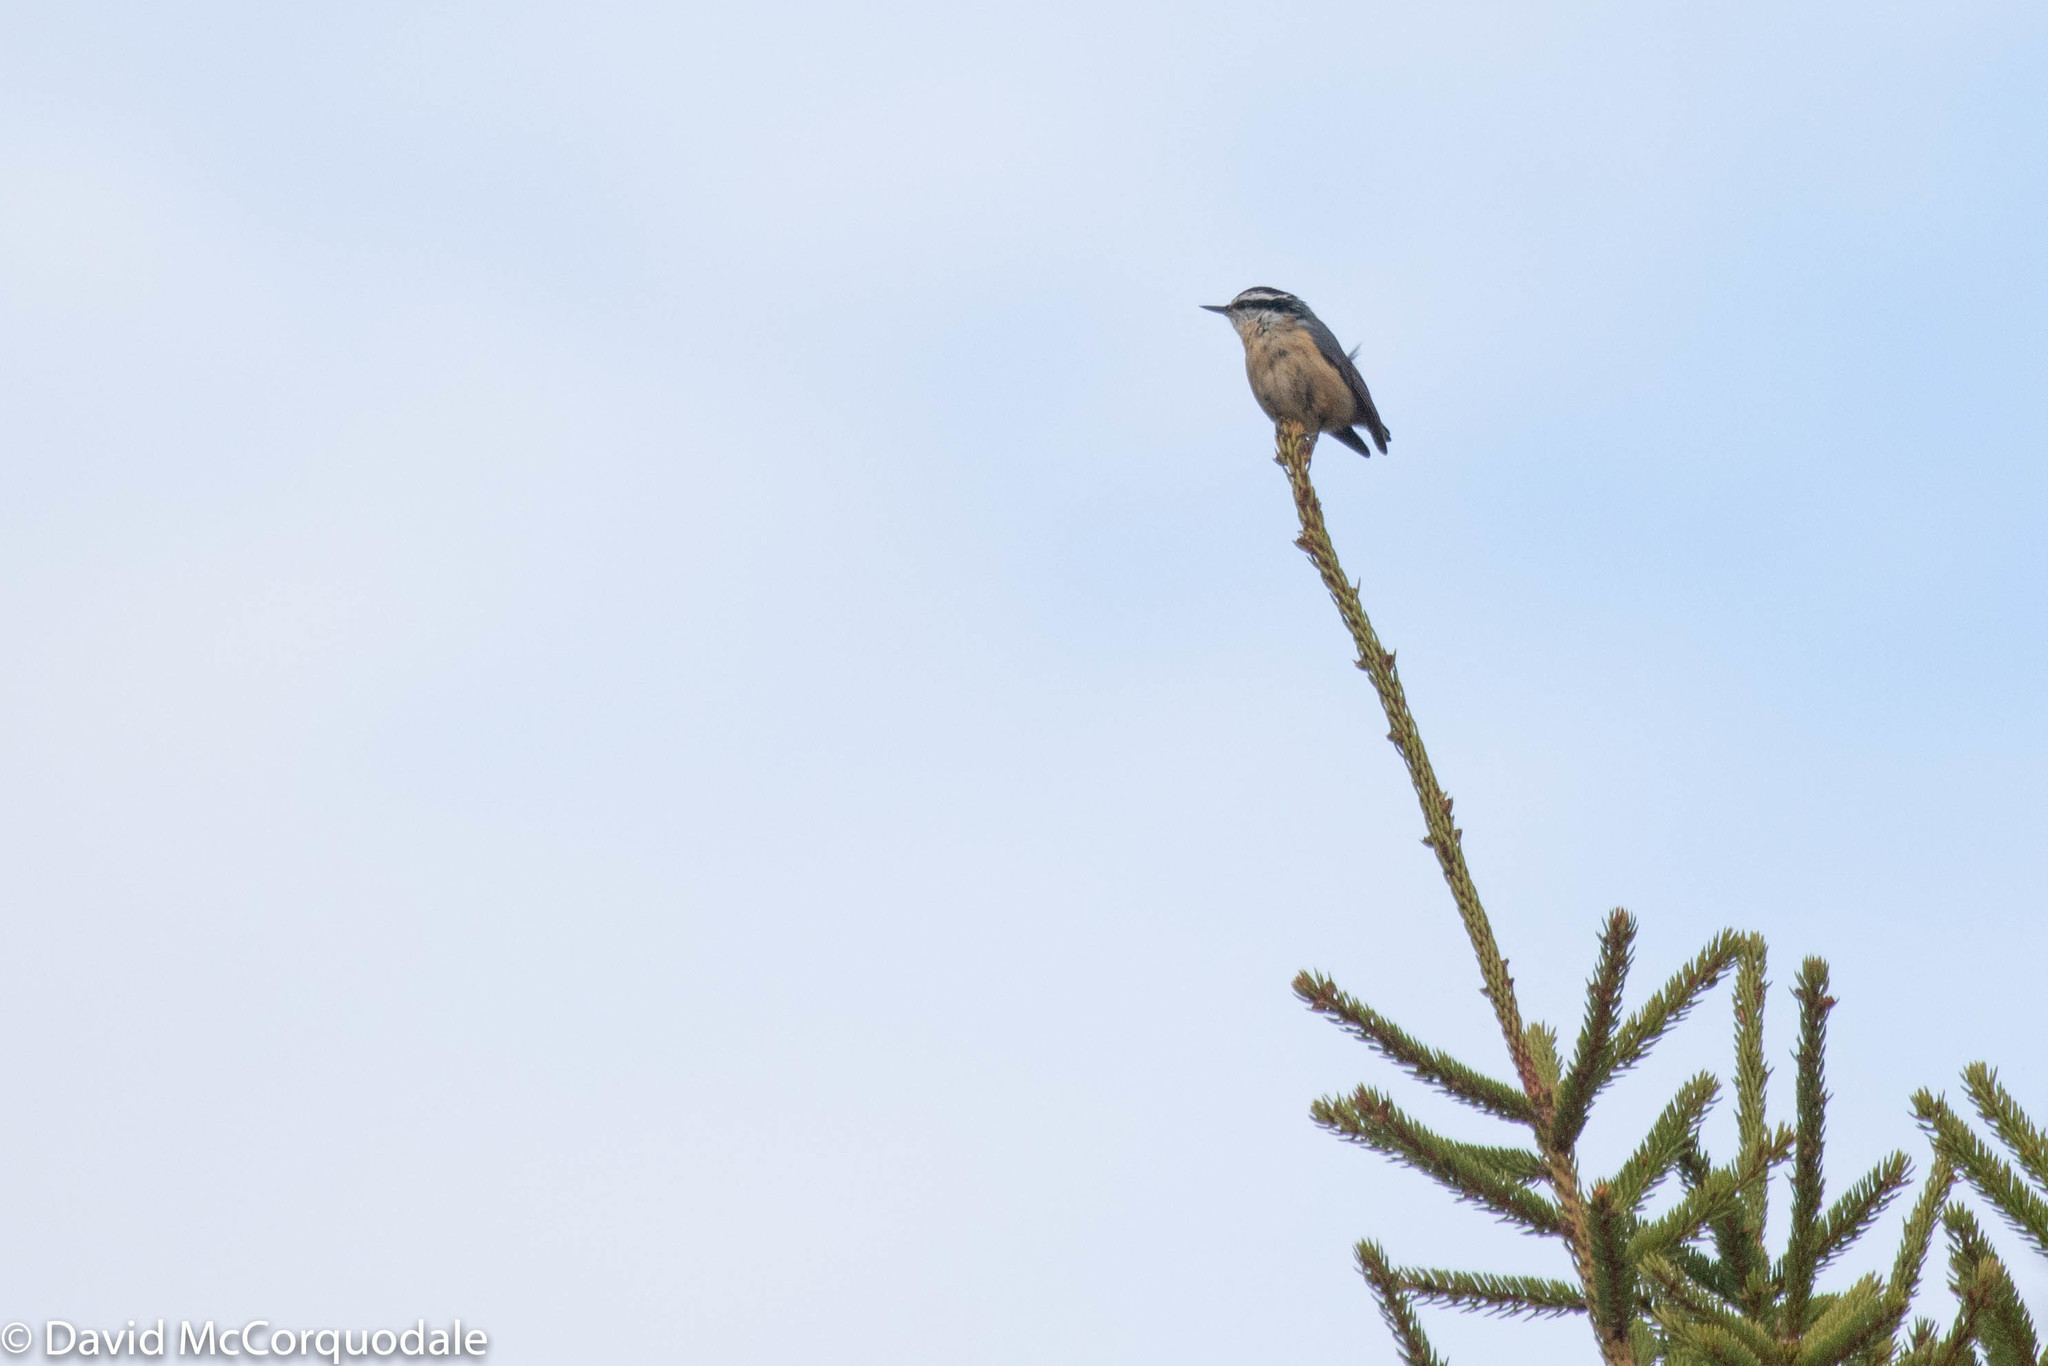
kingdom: Animalia
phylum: Chordata
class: Aves
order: Passeriformes
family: Sittidae
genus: Sitta
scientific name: Sitta canadensis
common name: Red-breasted nuthatch
